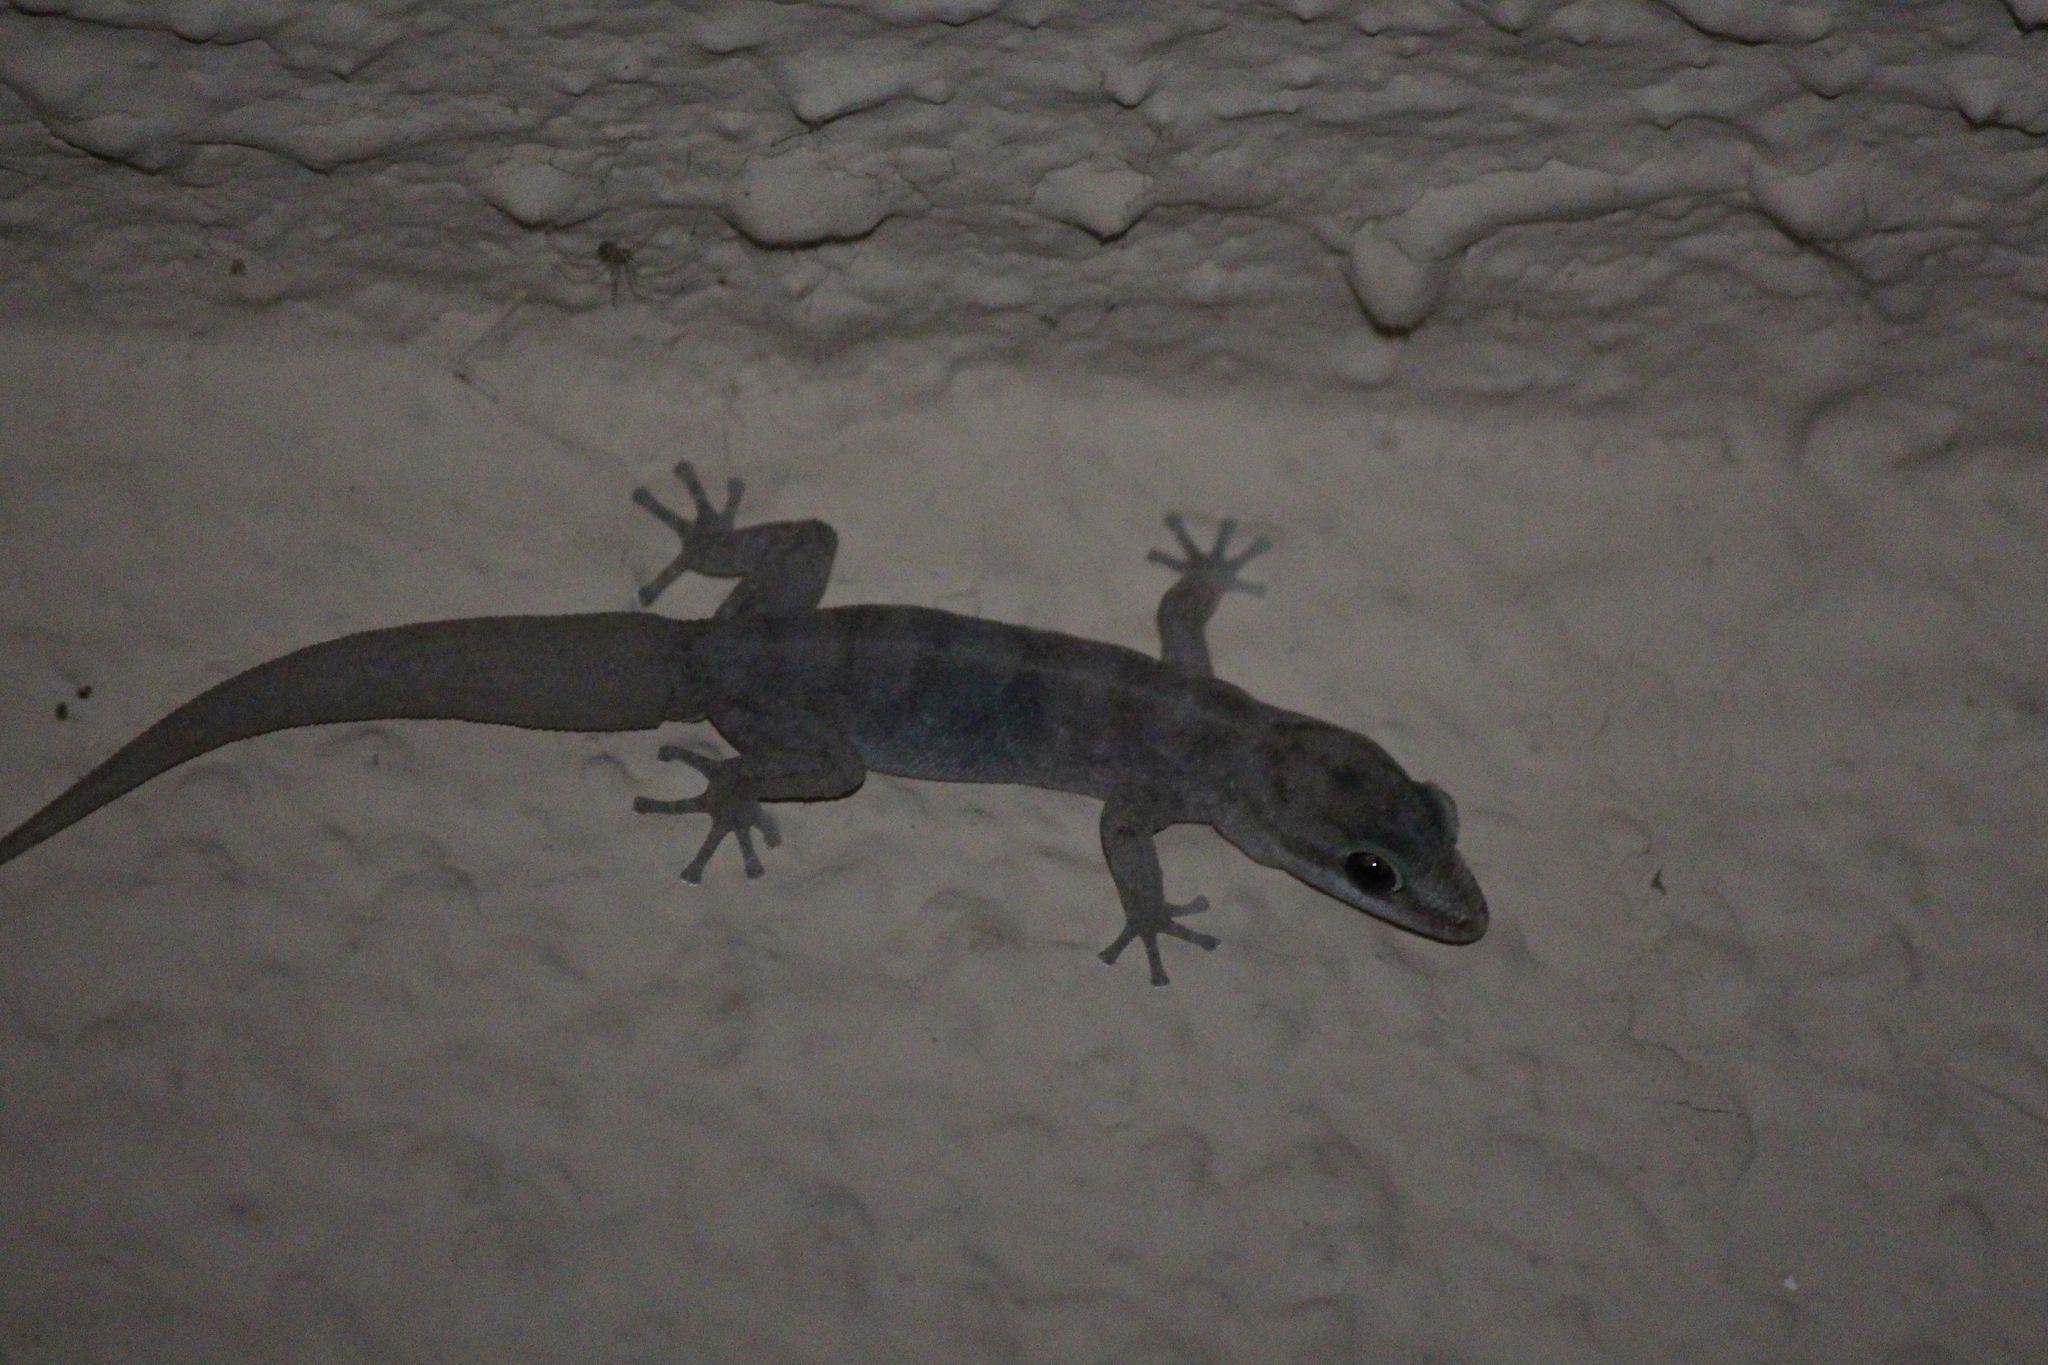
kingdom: Animalia
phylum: Chordata
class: Squamata
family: Phyllodactylidae
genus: Phyllodactylus
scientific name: Phyllodactylus leei
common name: Chatham leaf-toed gecko
